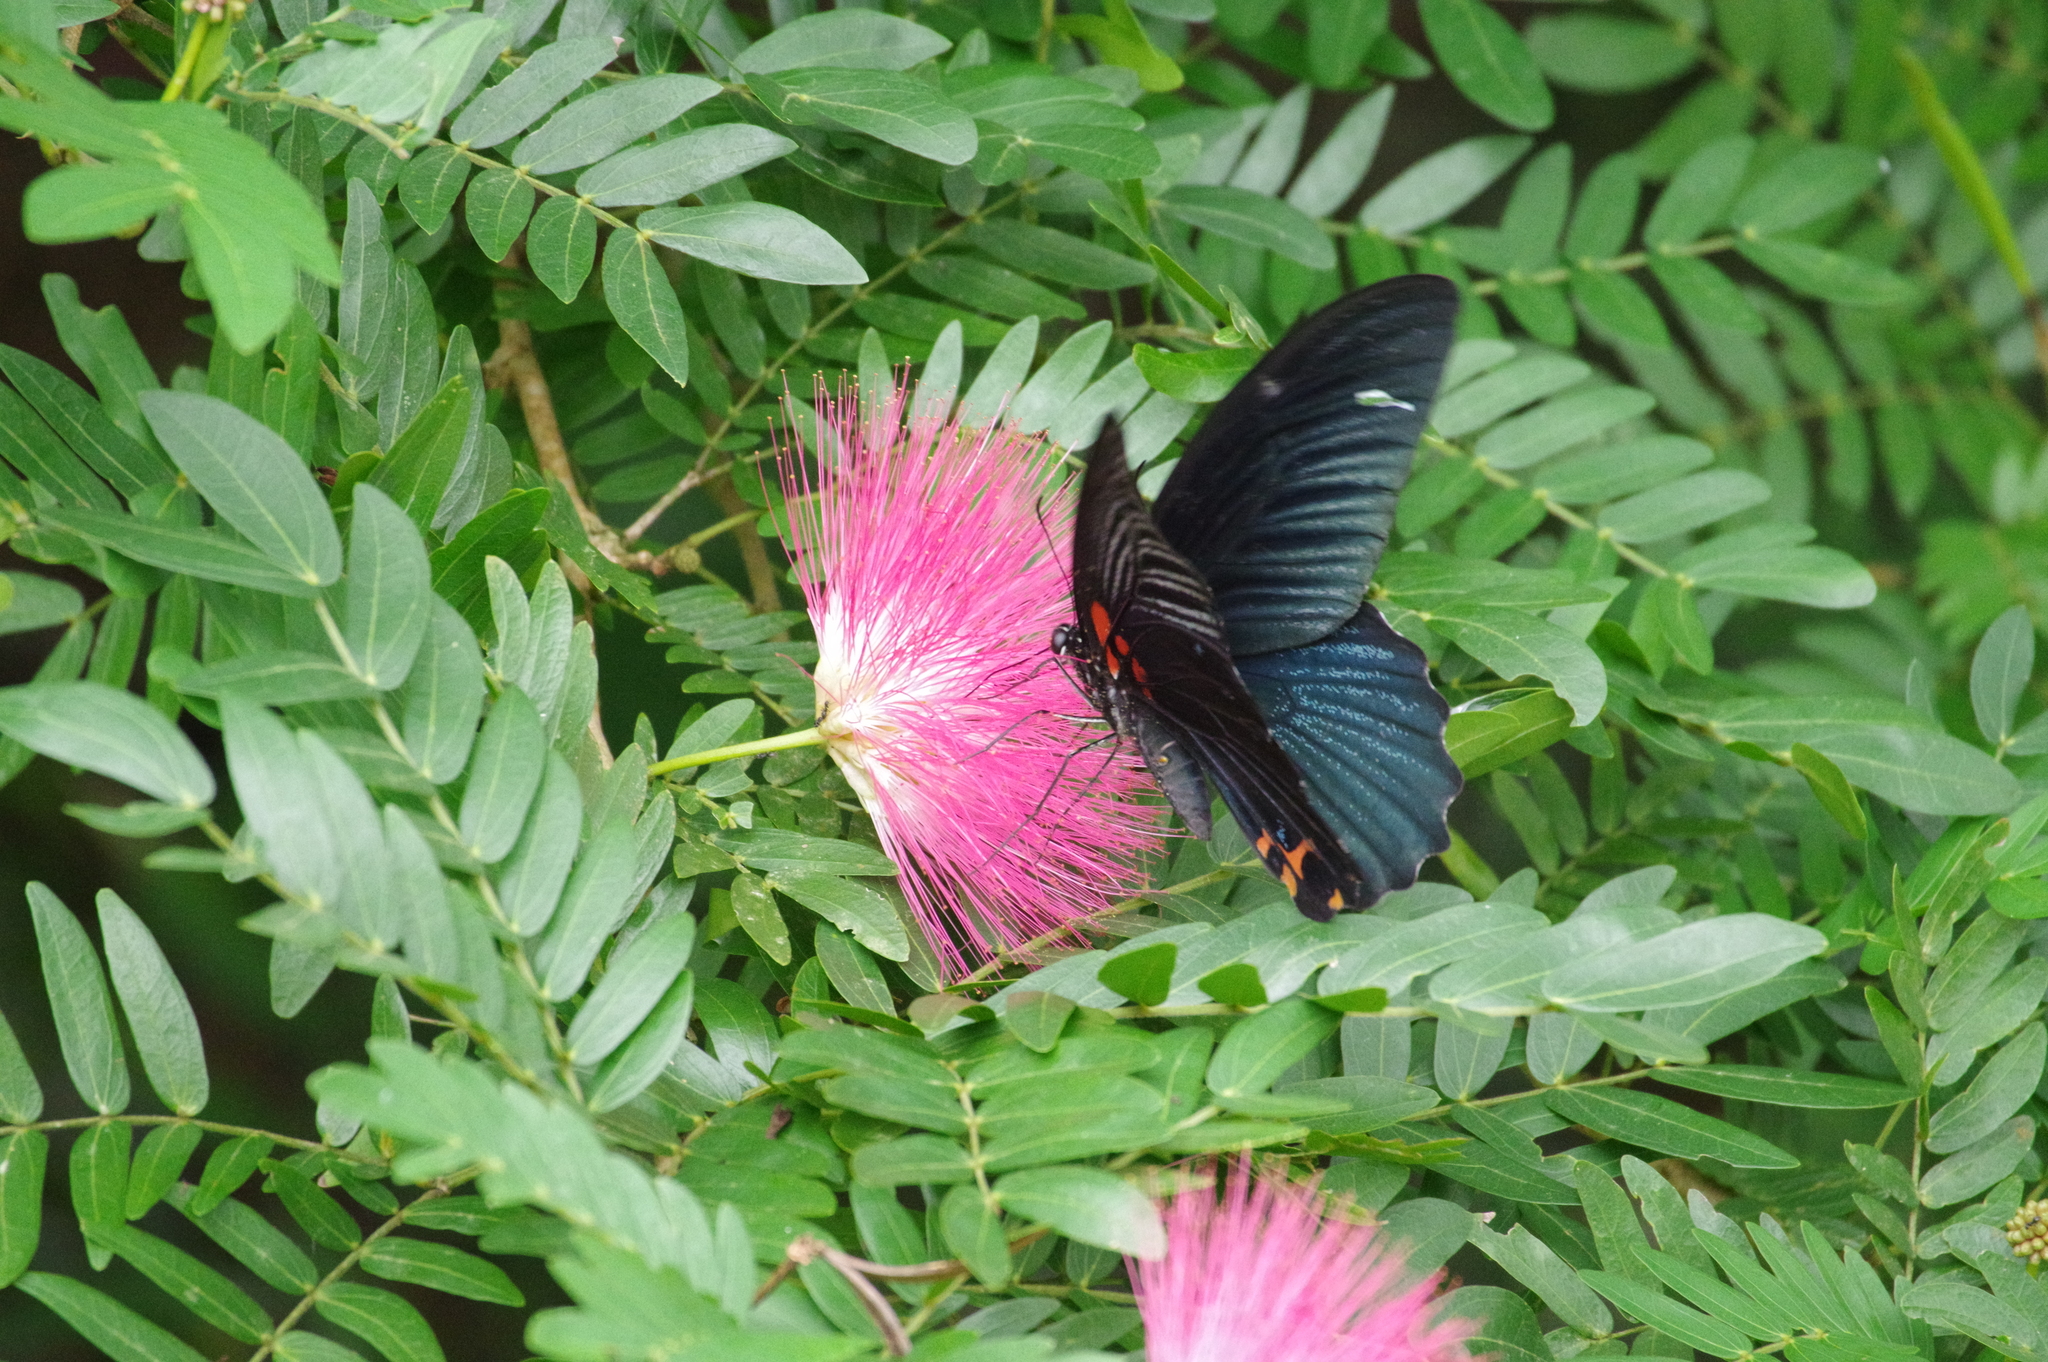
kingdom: Animalia
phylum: Arthropoda
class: Insecta
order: Lepidoptera
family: Papilionidae
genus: Papilio
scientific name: Papilio memnon
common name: Great mormon
